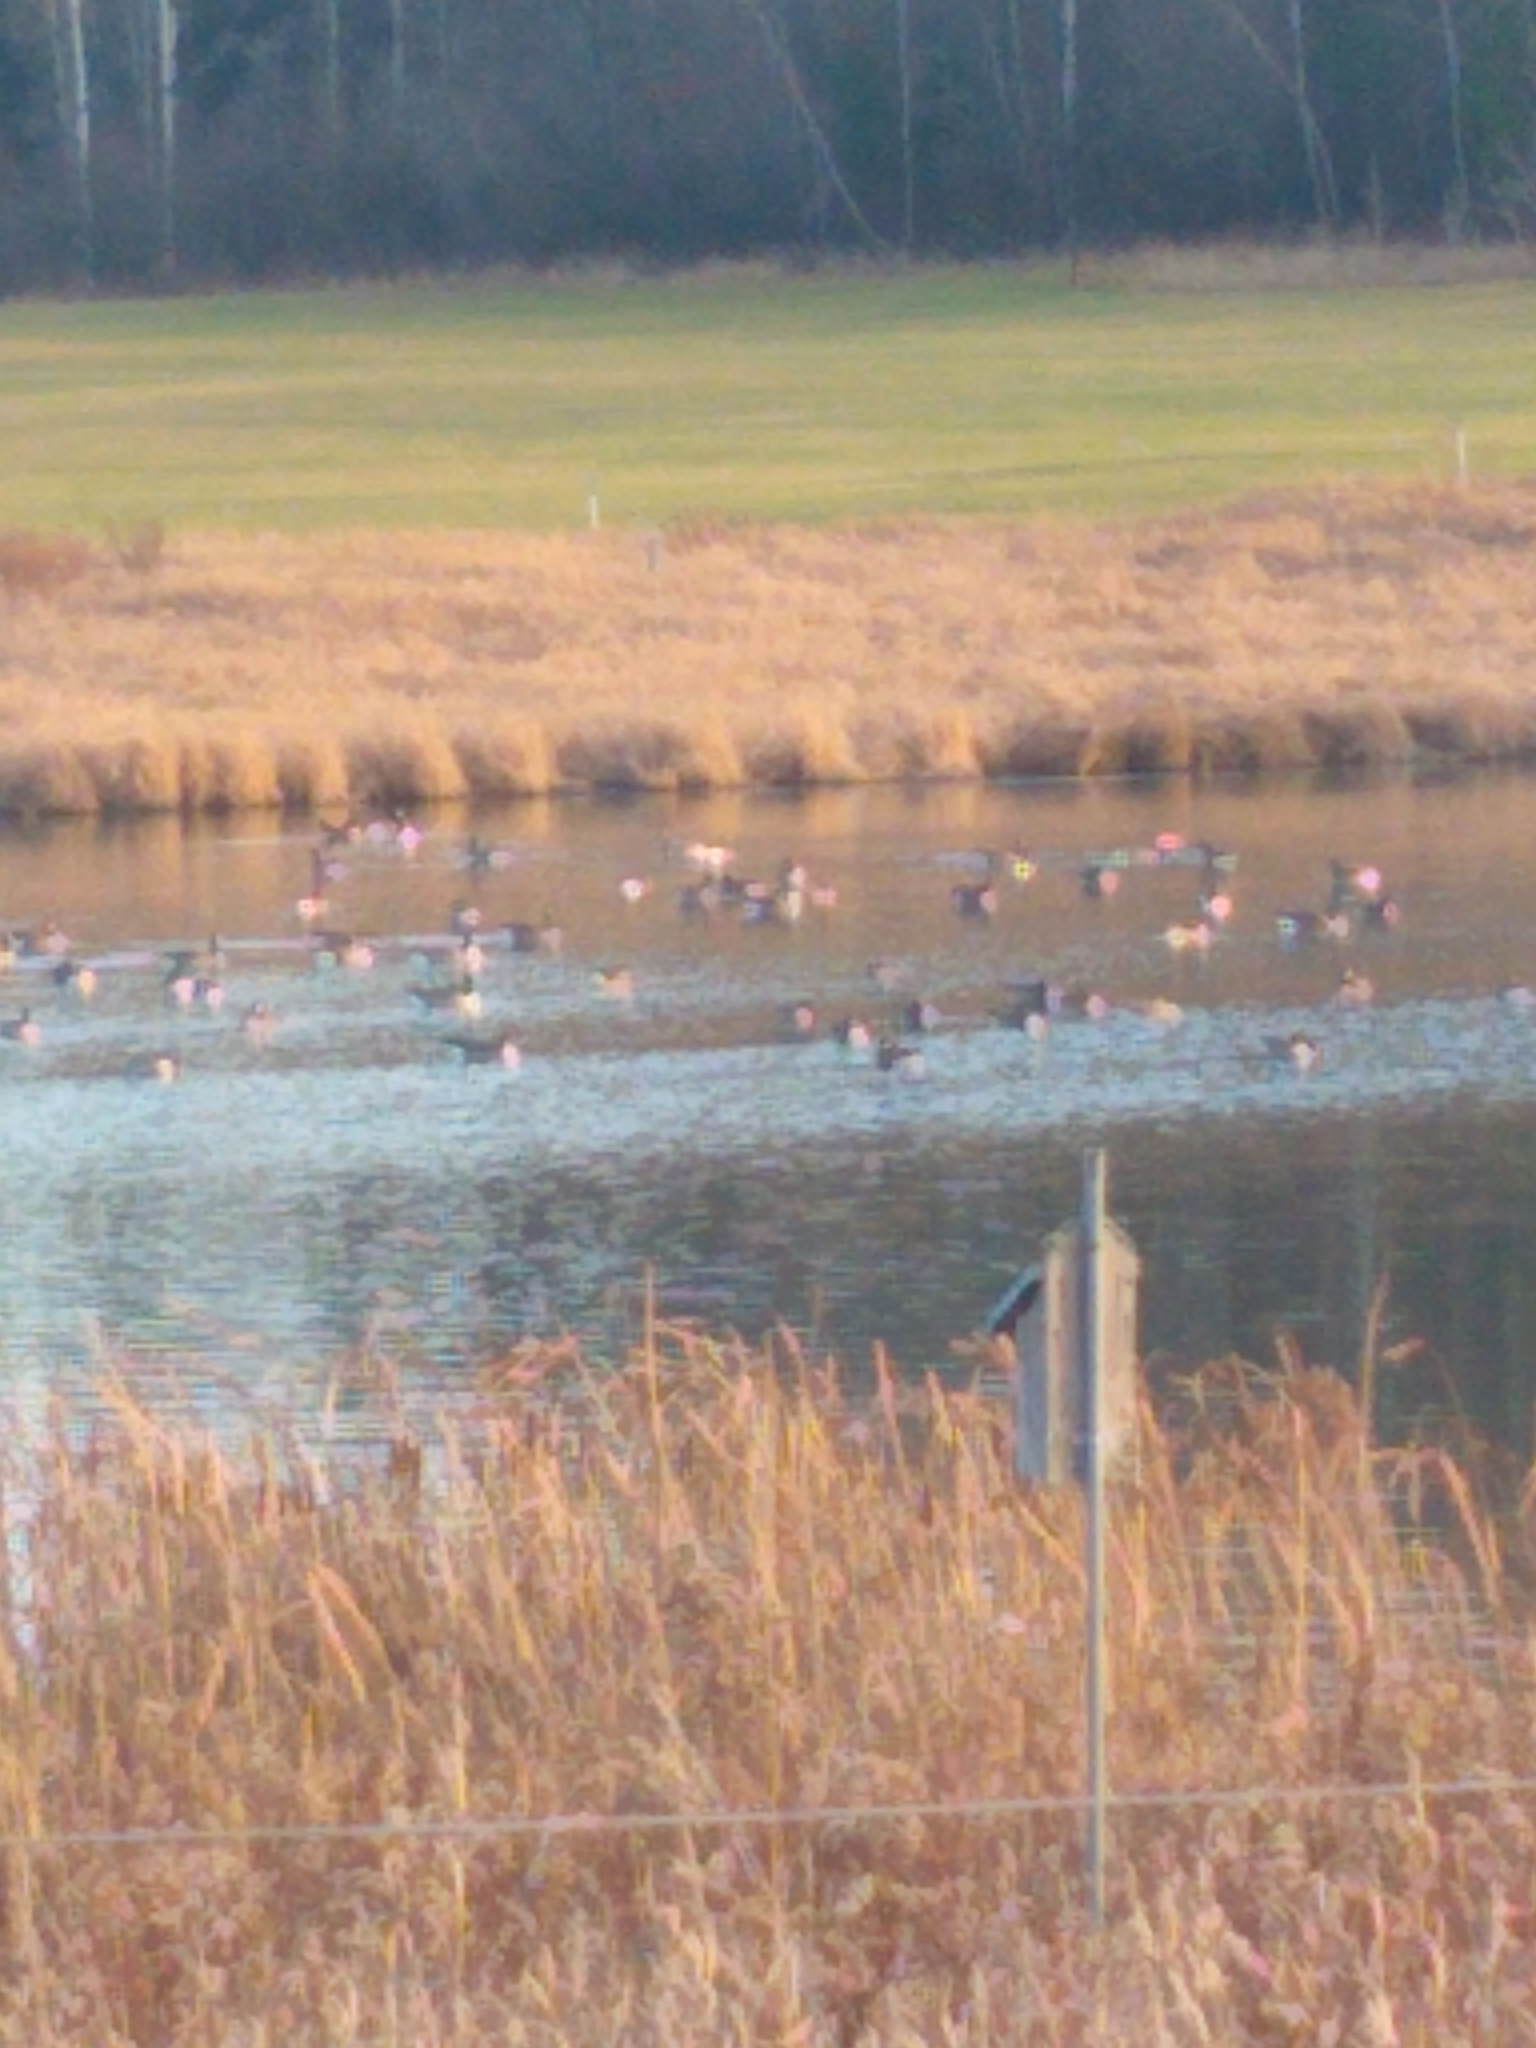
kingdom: Animalia
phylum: Chordata
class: Aves
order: Anseriformes
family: Anatidae
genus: Branta
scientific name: Branta canadensis
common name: Canada goose
